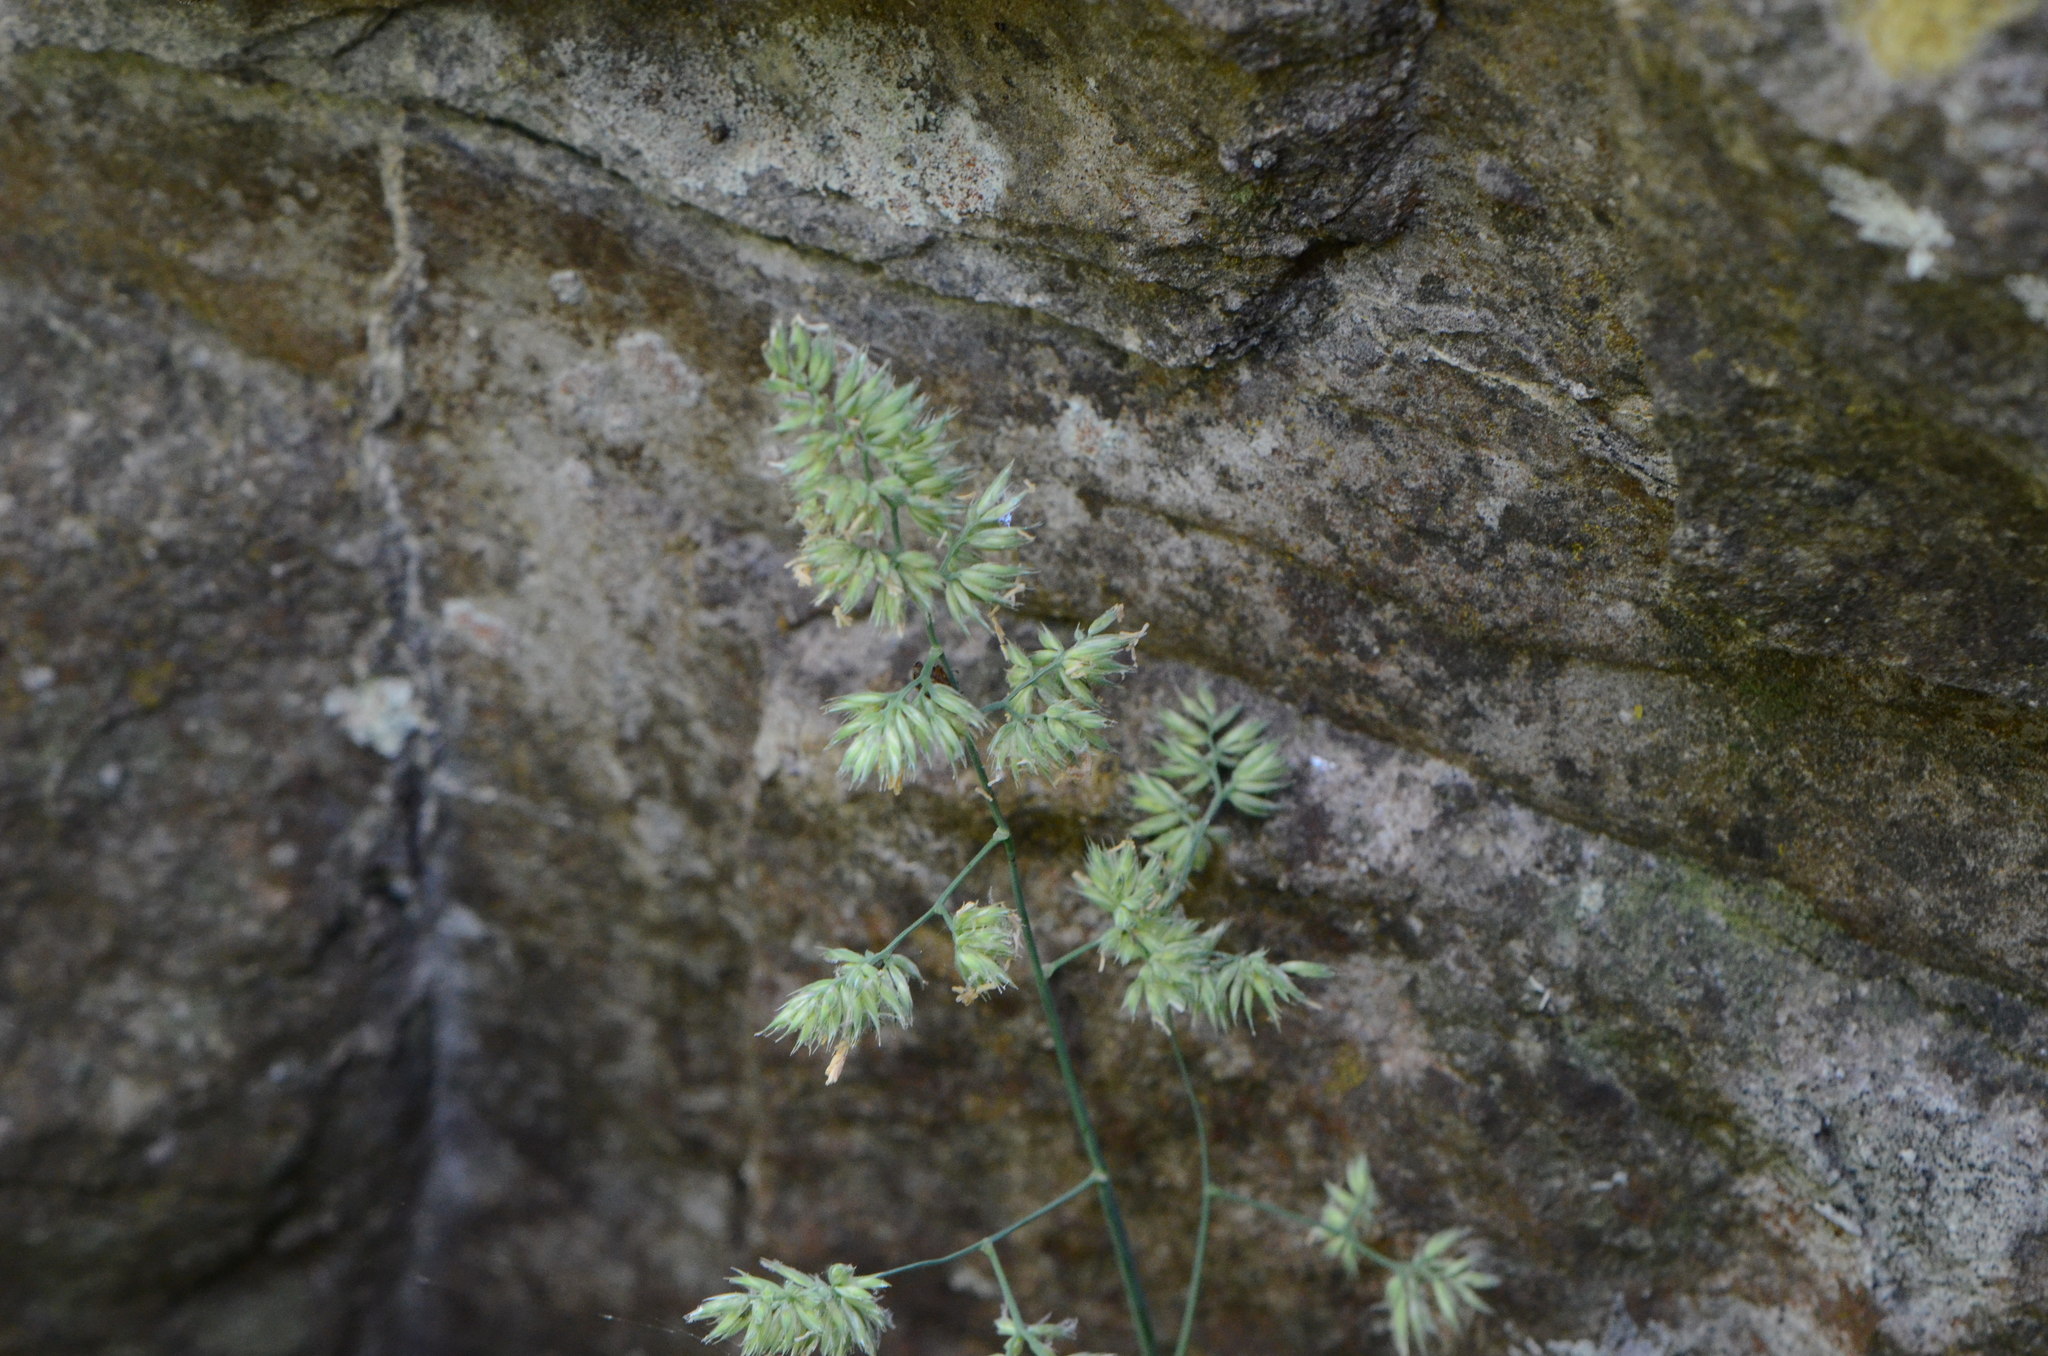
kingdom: Plantae
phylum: Tracheophyta
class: Liliopsida
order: Poales
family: Poaceae
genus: Dactylis
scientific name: Dactylis glomerata
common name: Orchardgrass
